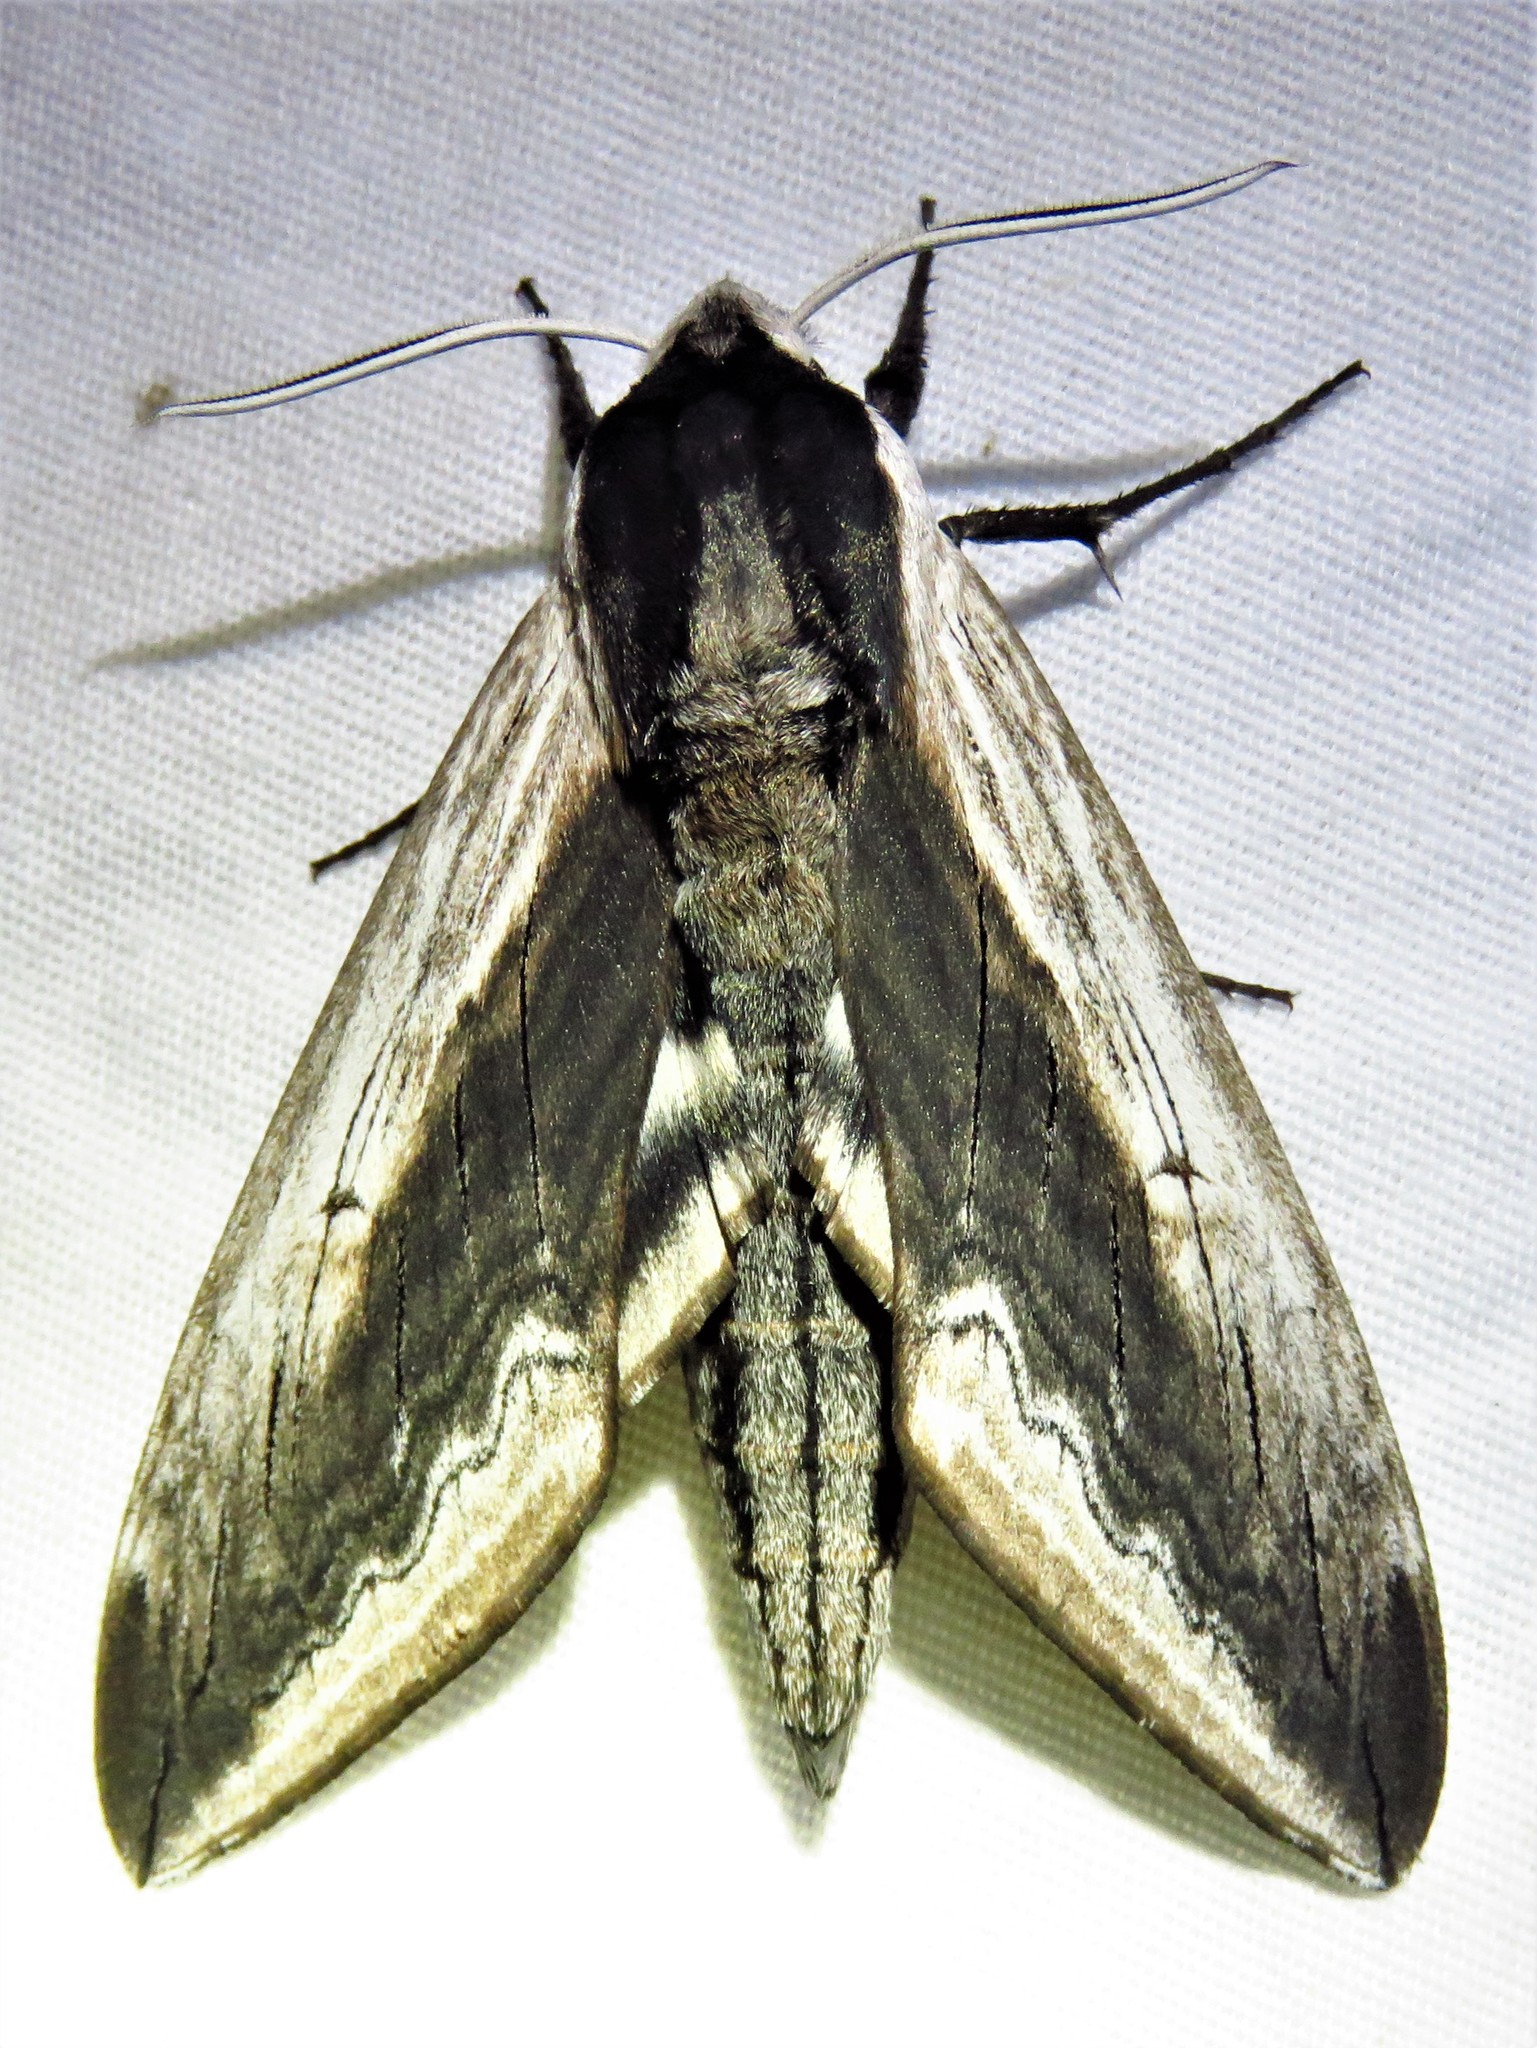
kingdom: Animalia
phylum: Arthropoda
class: Insecta
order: Lepidoptera
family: Sphingidae
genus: Sphinx
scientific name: Sphinx drupiferarum
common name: Wild cherry sphinx
